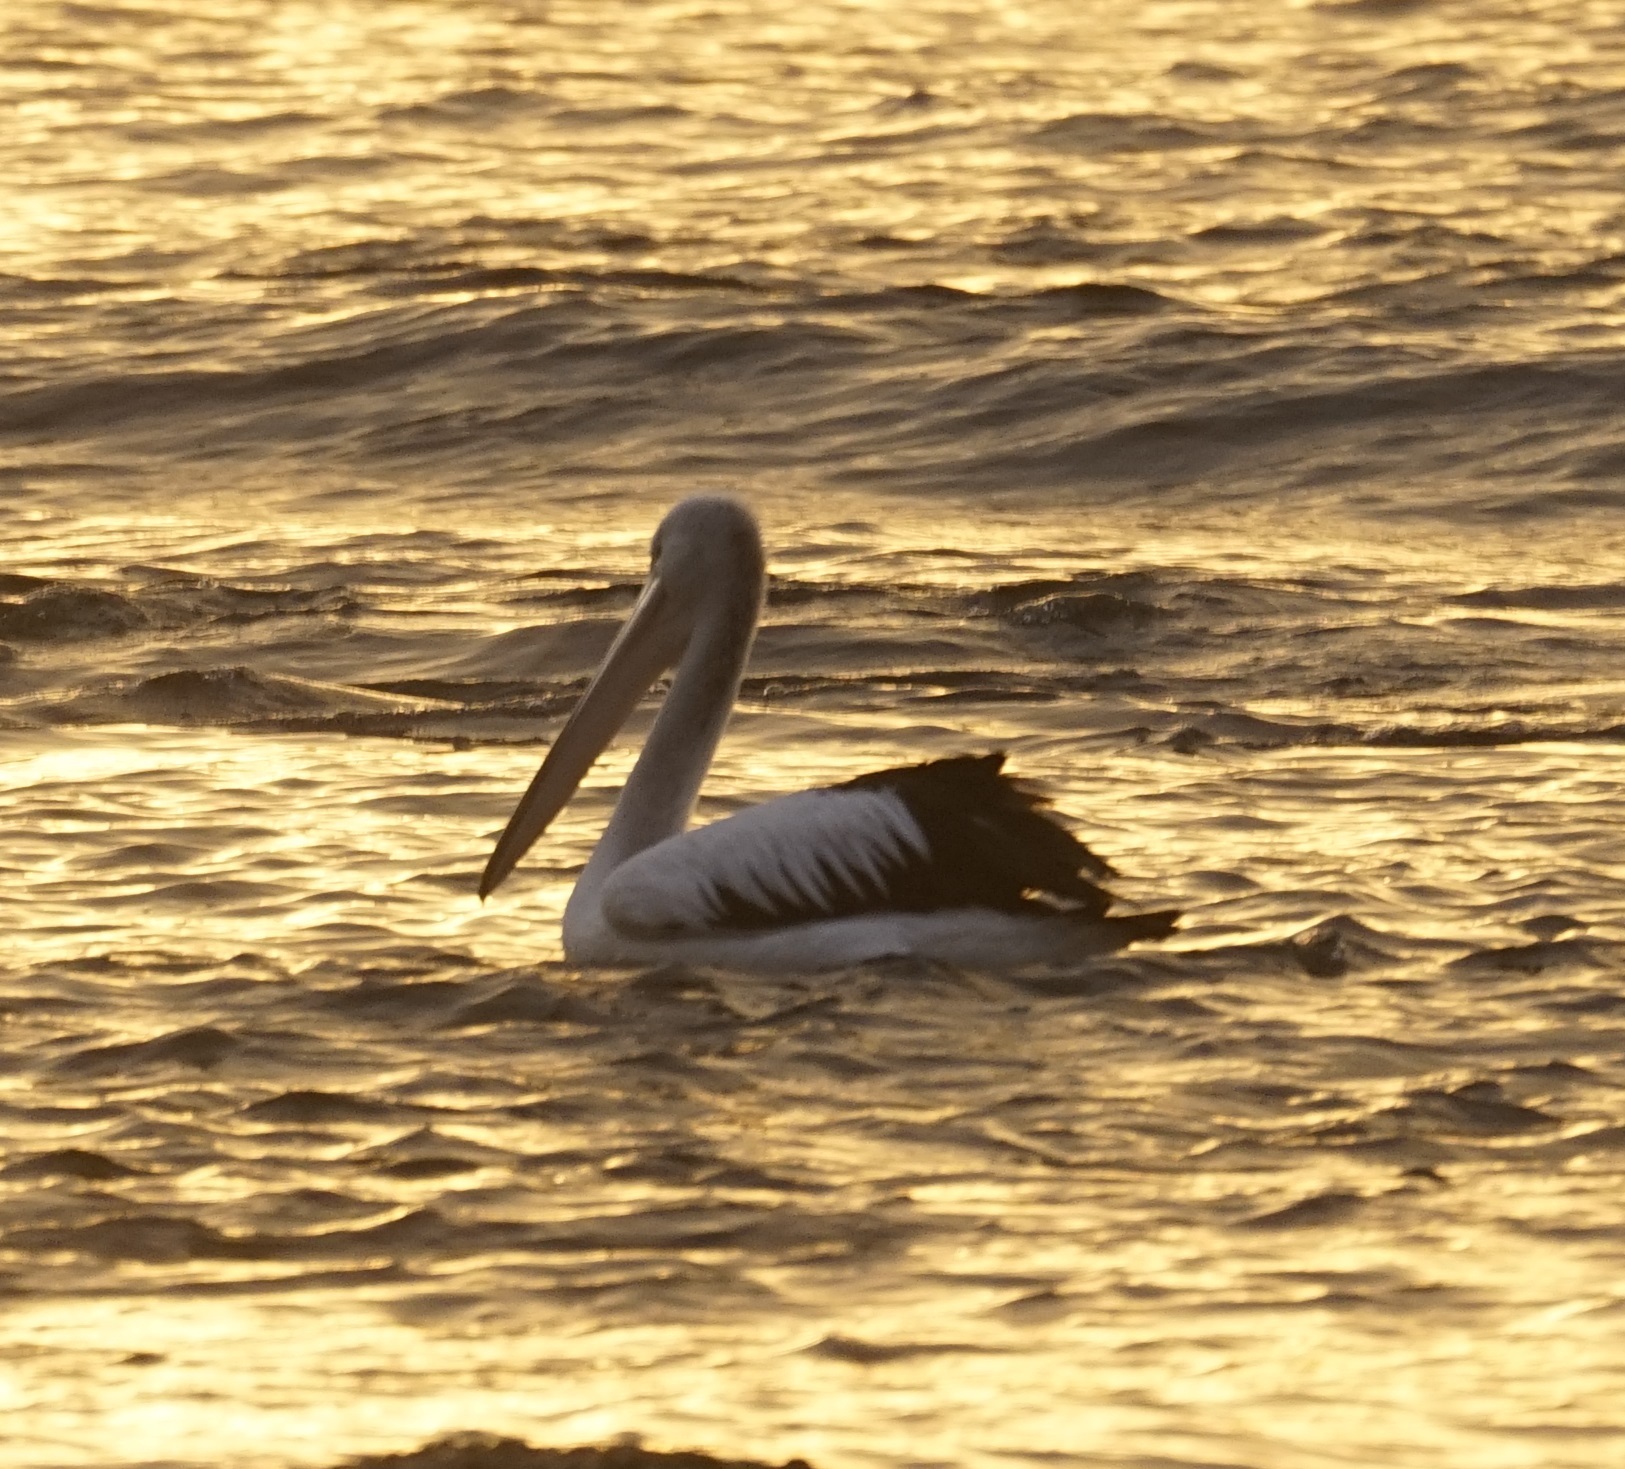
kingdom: Animalia
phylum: Chordata
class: Aves
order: Pelecaniformes
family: Pelecanidae
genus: Pelecanus
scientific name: Pelecanus conspicillatus
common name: Australian pelican
